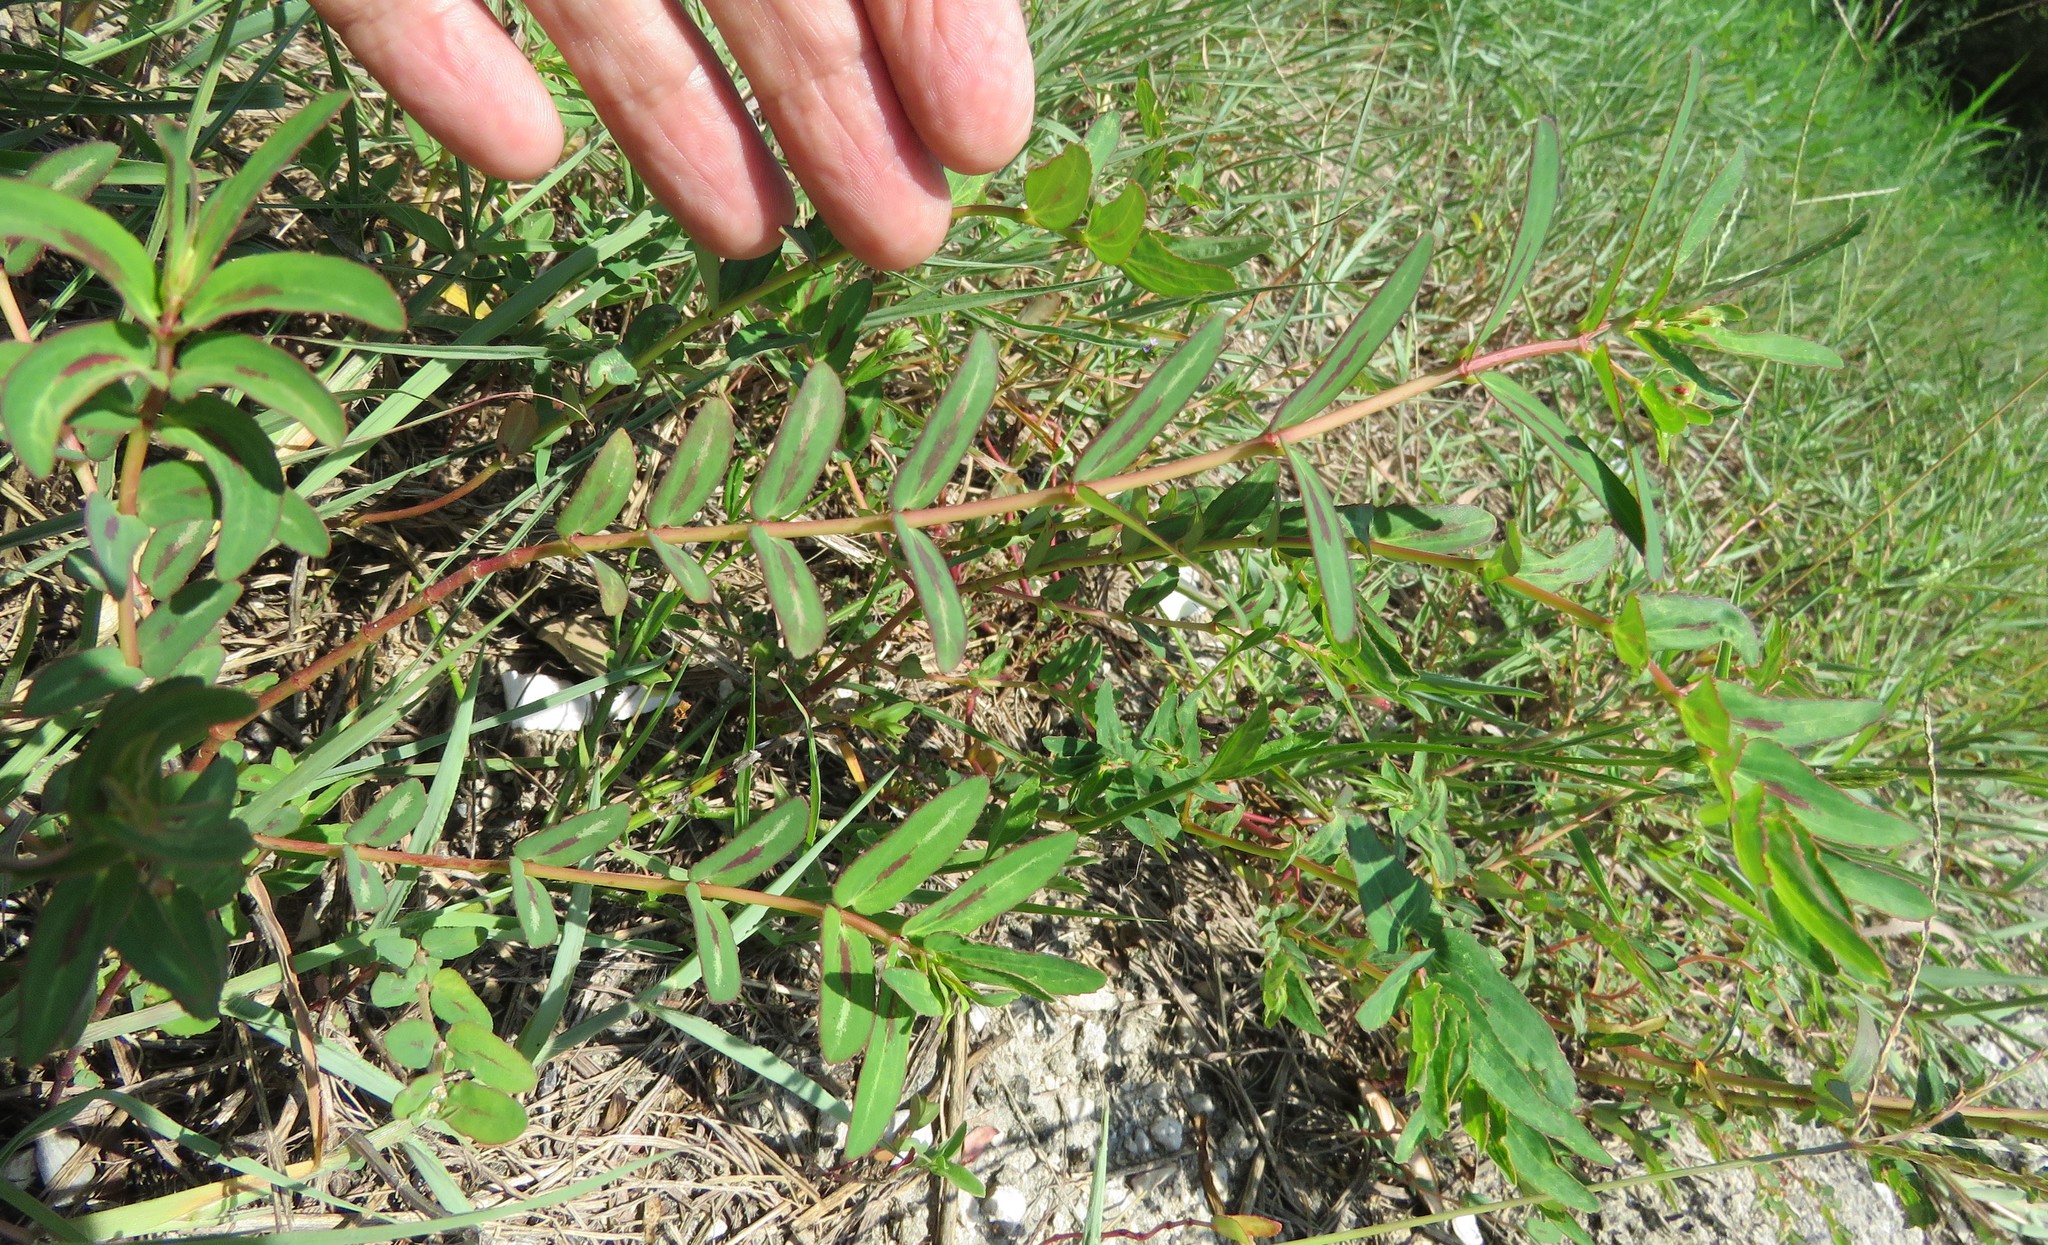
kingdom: Plantae
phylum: Tracheophyta
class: Magnoliopsida
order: Malpighiales
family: Euphorbiaceae
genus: Euphorbia
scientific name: Euphorbia nutans
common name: Eyebane
